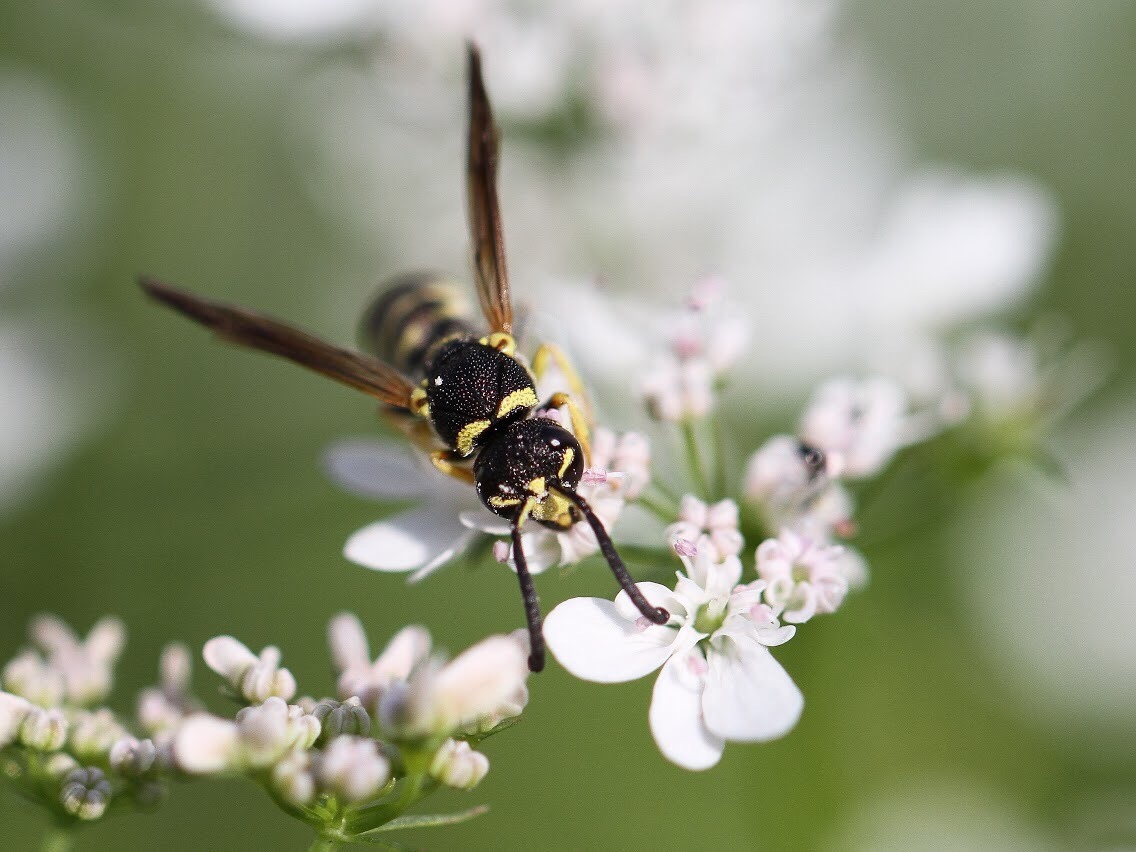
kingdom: Animalia
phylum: Arthropoda
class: Insecta
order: Hymenoptera
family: Eumenidae
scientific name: Eumenidae
